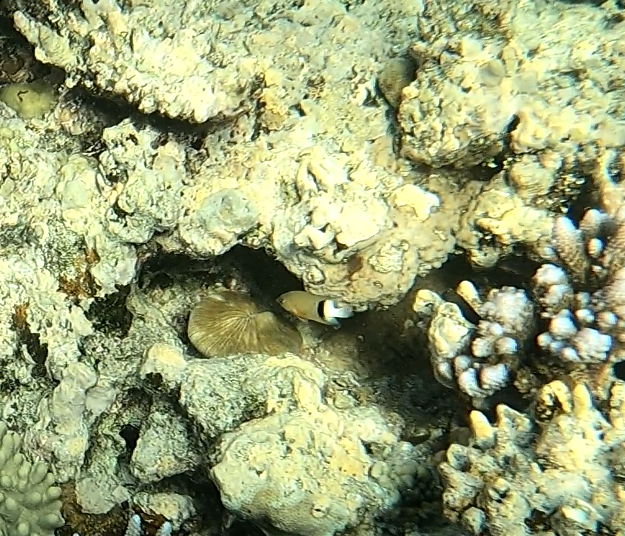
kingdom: Animalia
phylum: Chordata
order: Perciformes
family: Pomacentridae
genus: Plectroglyphidodon
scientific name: Plectroglyphidodon dickii
